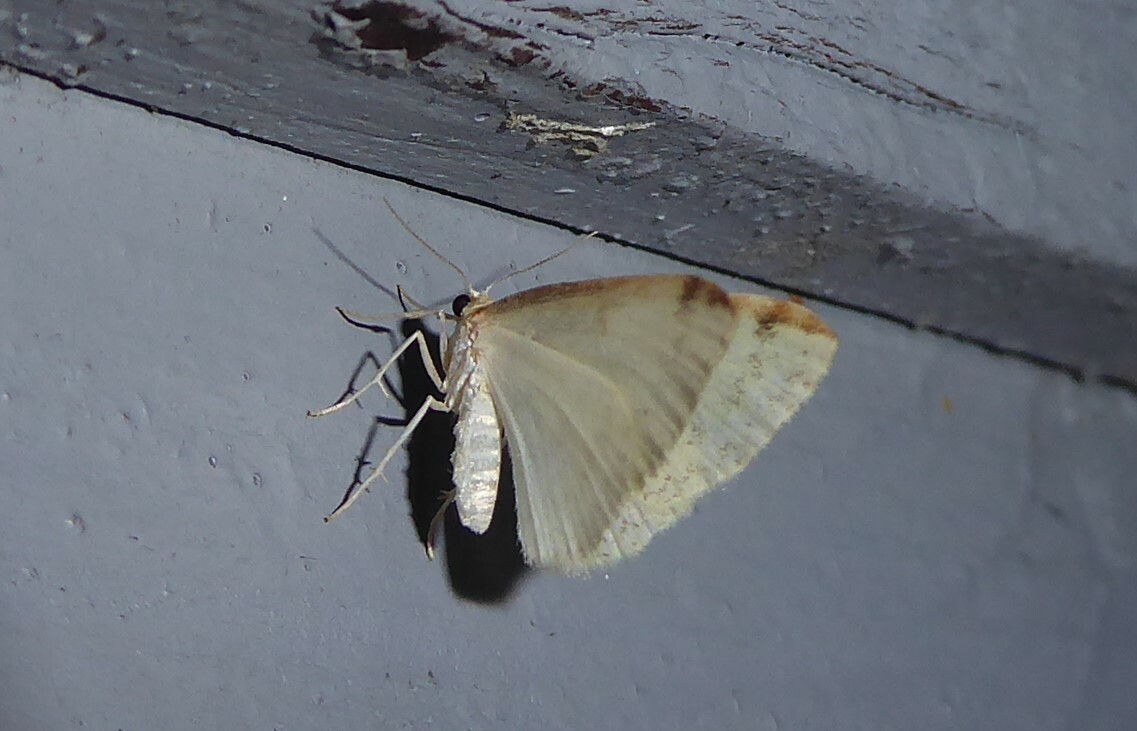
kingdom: Animalia
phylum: Arthropoda
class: Insecta
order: Lepidoptera
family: Geometridae
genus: Epiphryne
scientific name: Epiphryne undosata
